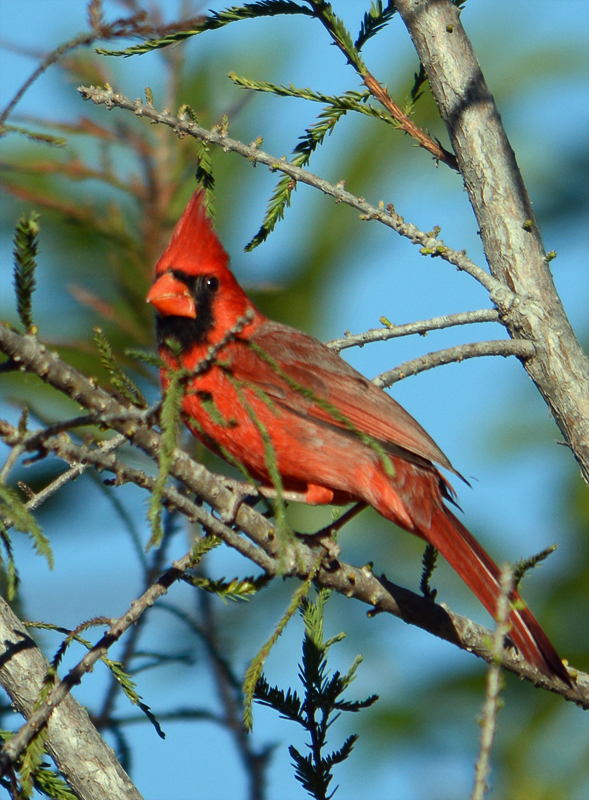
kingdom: Animalia
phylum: Chordata
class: Aves
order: Passeriformes
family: Cardinalidae
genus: Cardinalis
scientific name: Cardinalis cardinalis
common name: Northern cardinal
